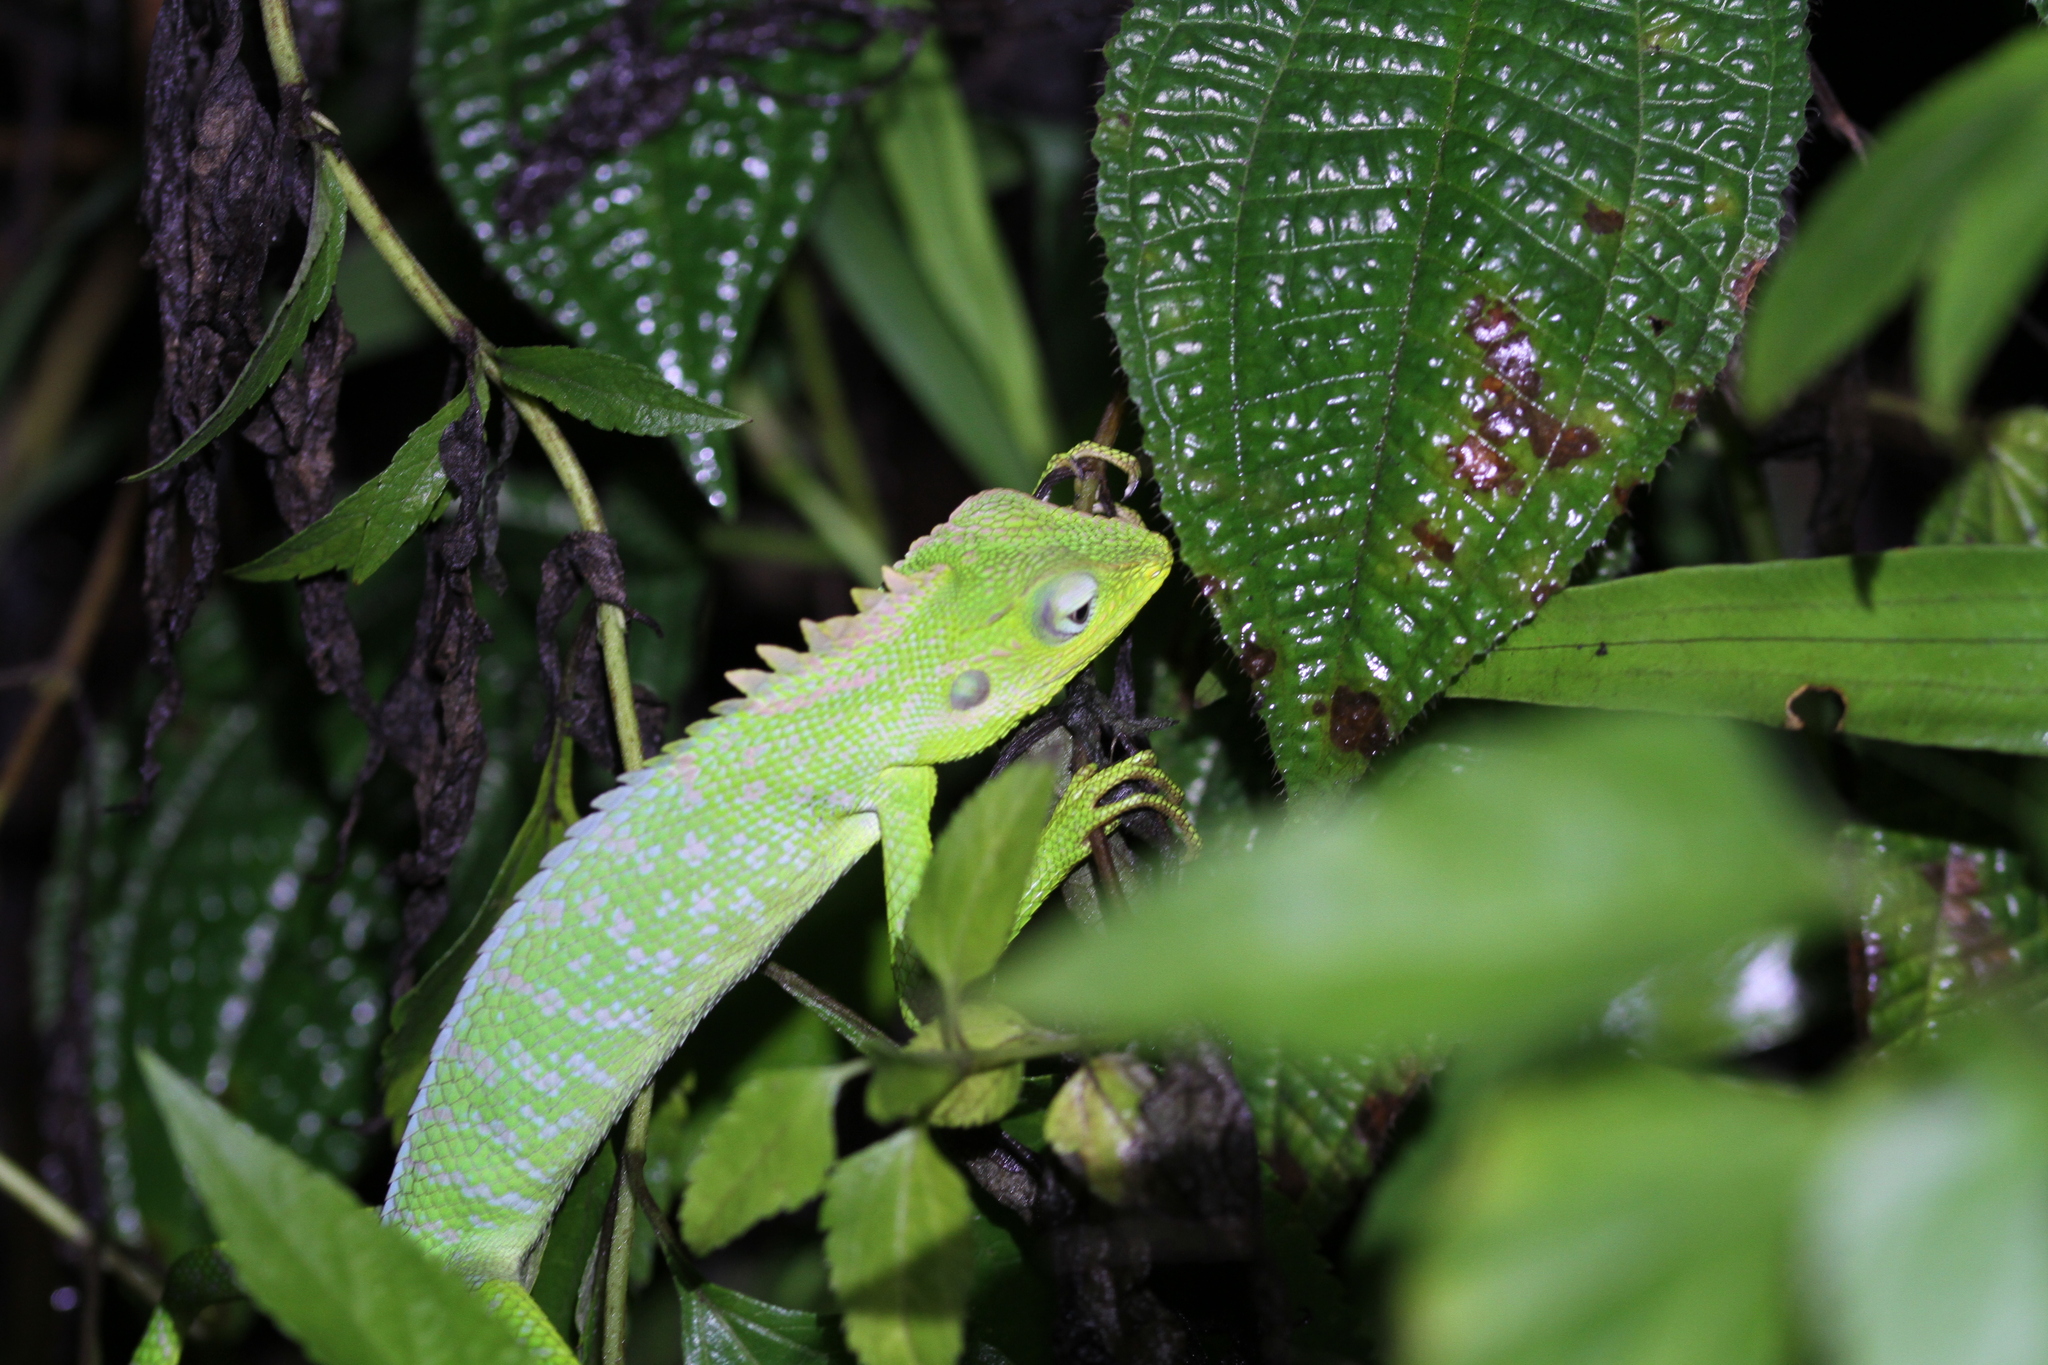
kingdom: Animalia
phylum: Chordata
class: Squamata
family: Agamidae
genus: Bronchocela
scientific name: Bronchocela jubata
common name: Maned forest lizard
